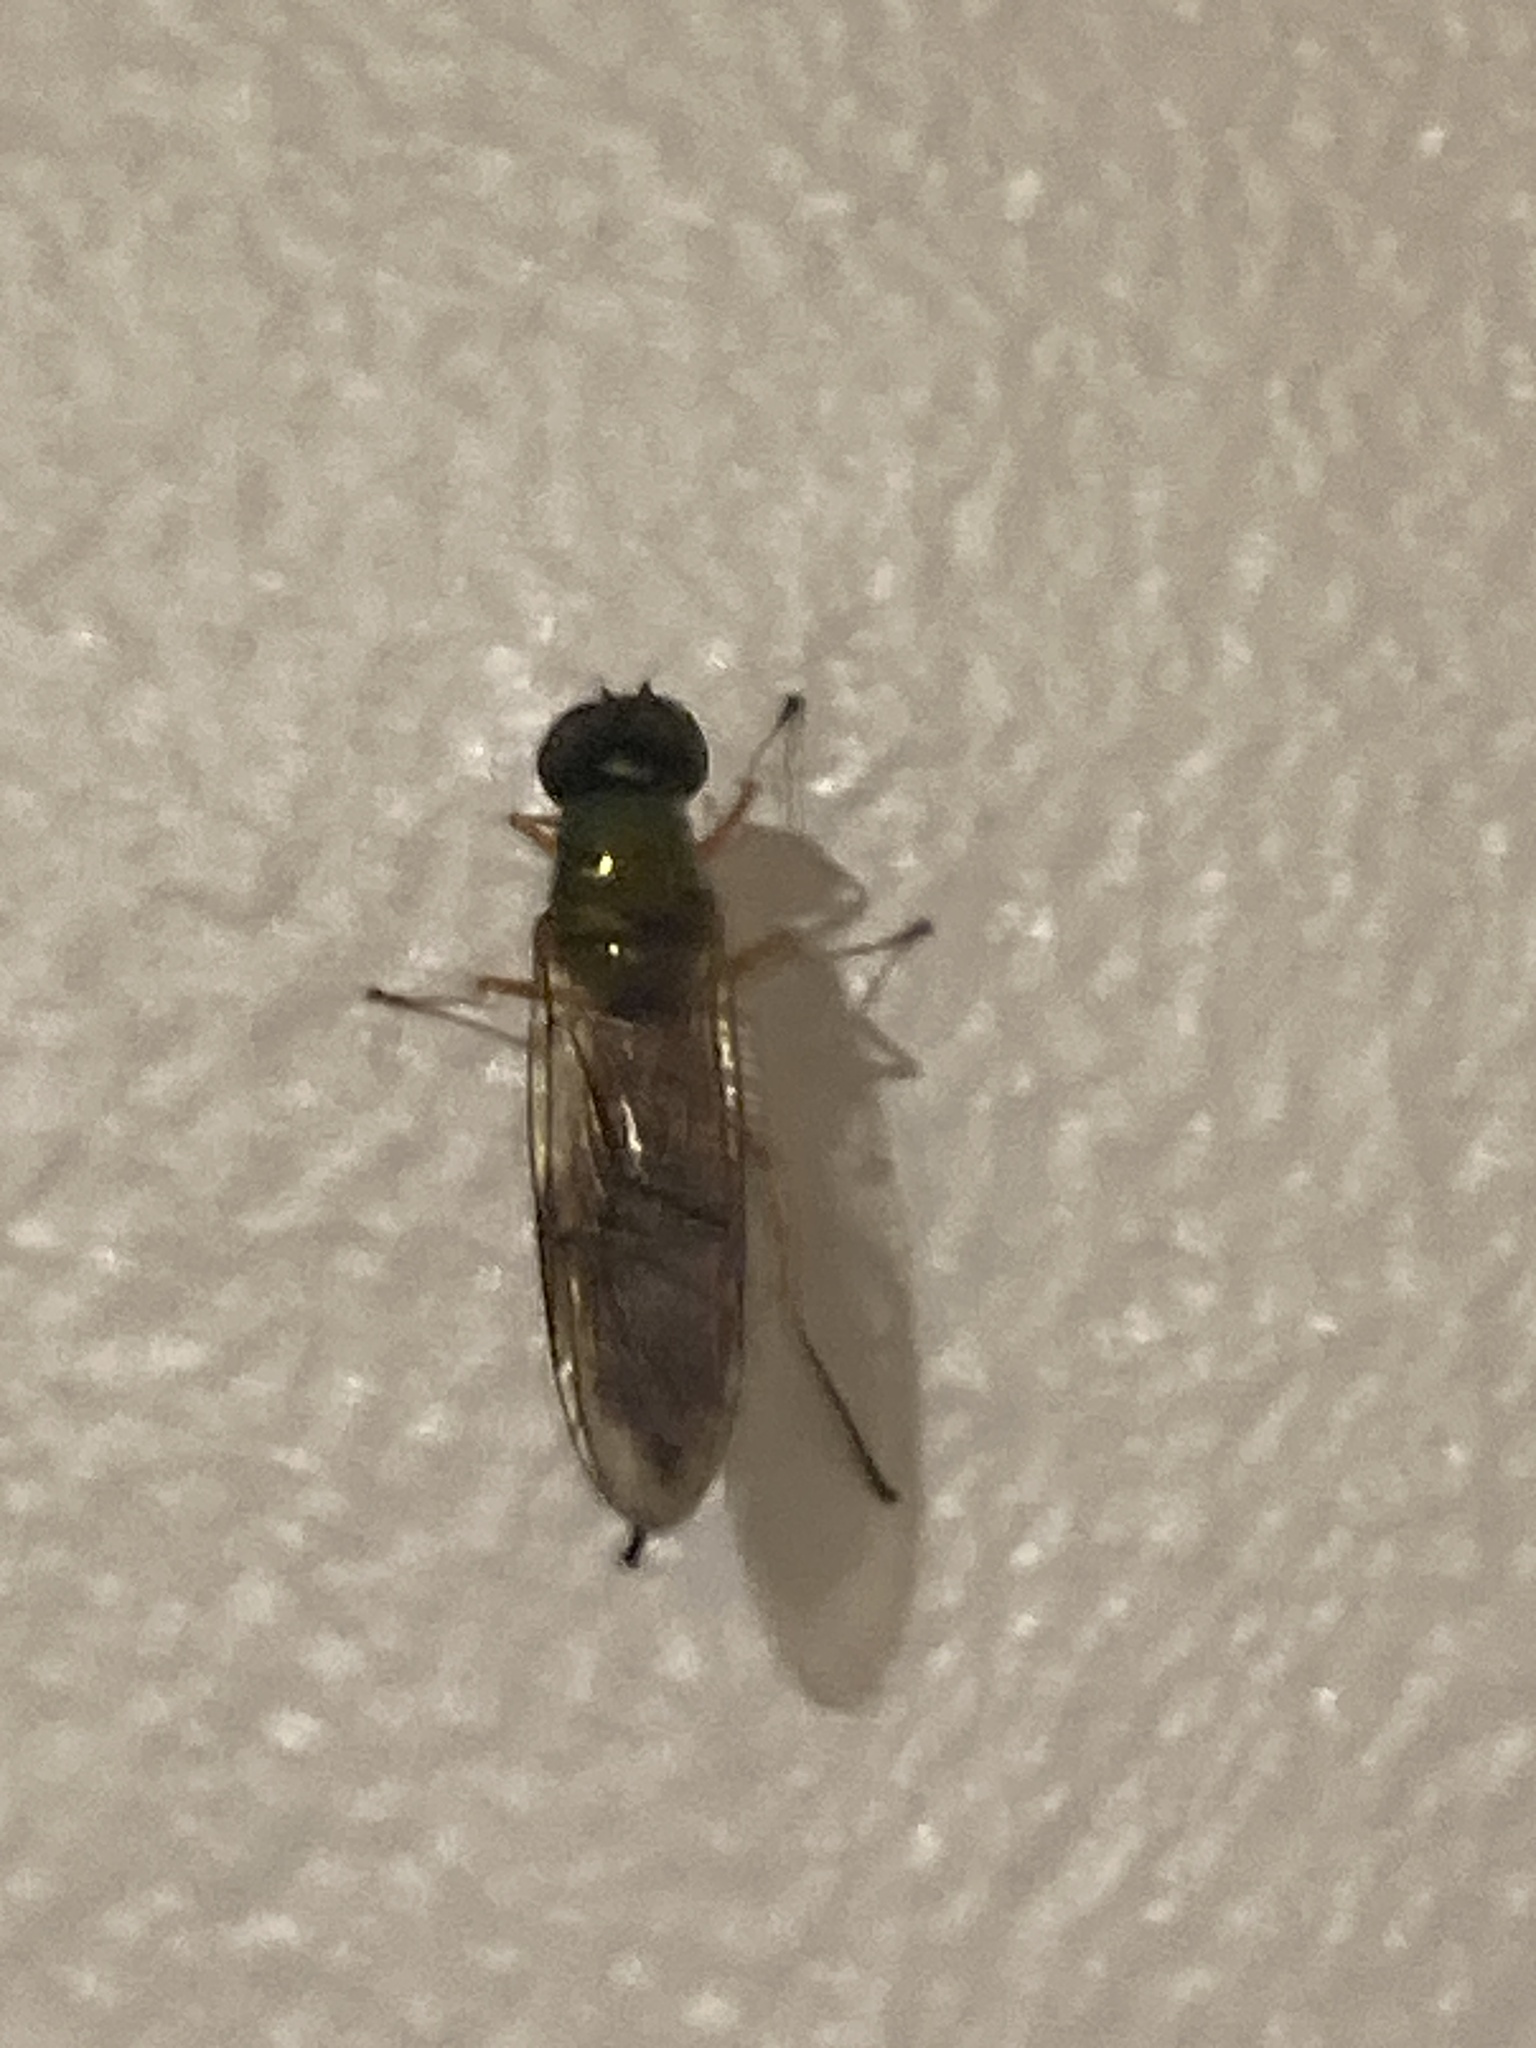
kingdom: Animalia
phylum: Arthropoda
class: Insecta
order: Diptera
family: Stratiomyidae
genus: Sargus
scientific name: Sargus bipunctatus
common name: Twin-spot centurion
